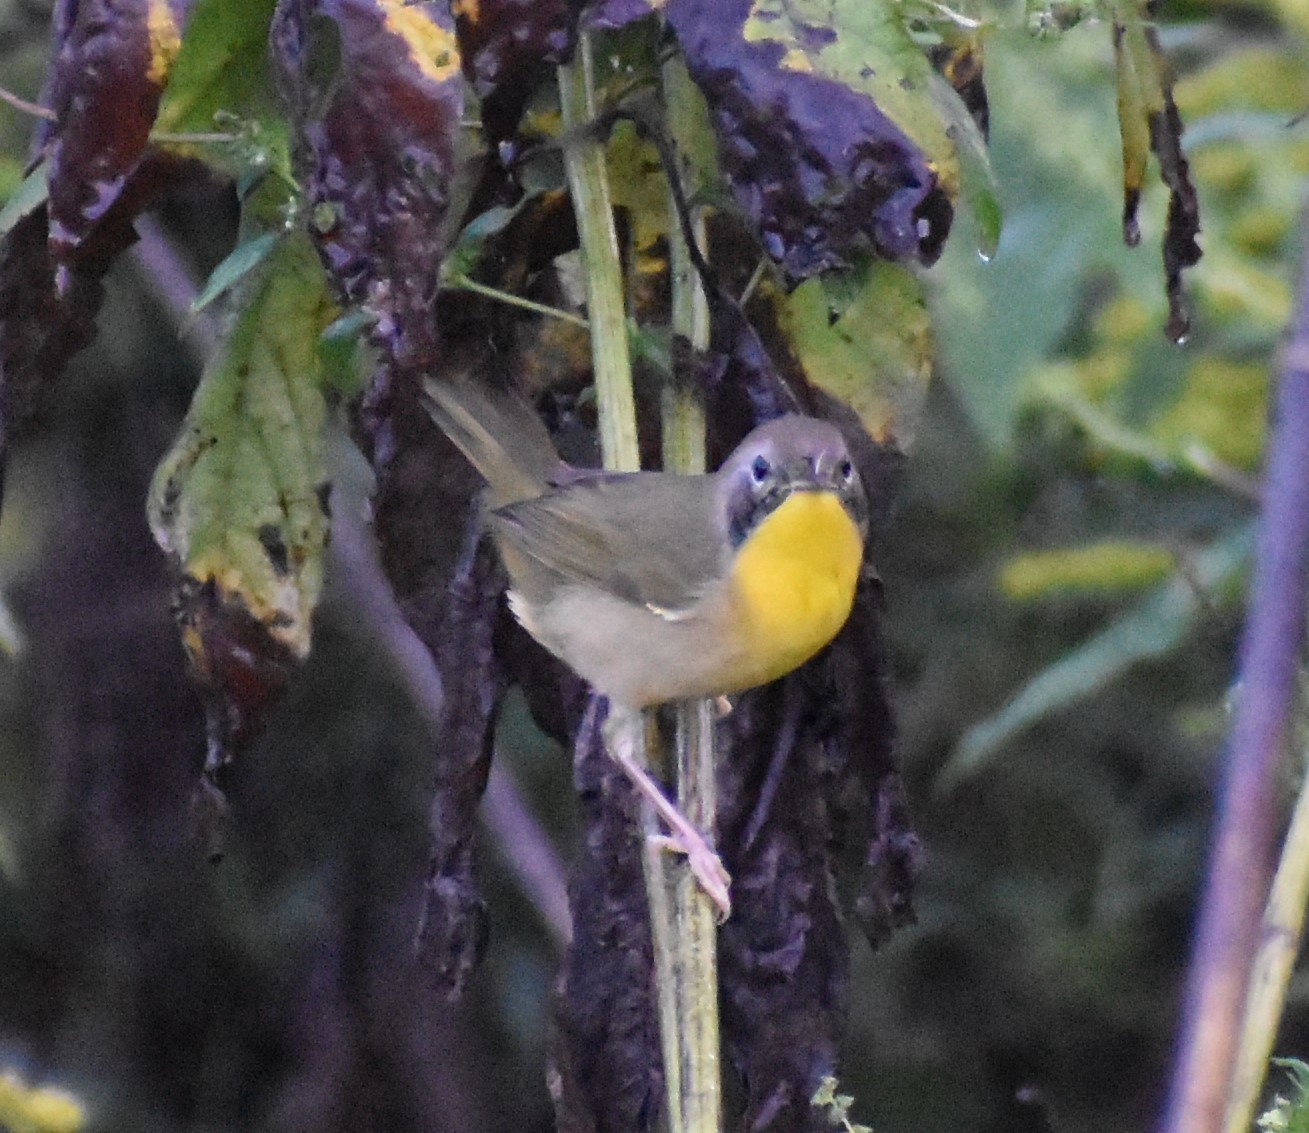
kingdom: Animalia
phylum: Chordata
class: Aves
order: Passeriformes
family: Parulidae
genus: Geothlypis
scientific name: Geothlypis trichas
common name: Common yellowthroat
